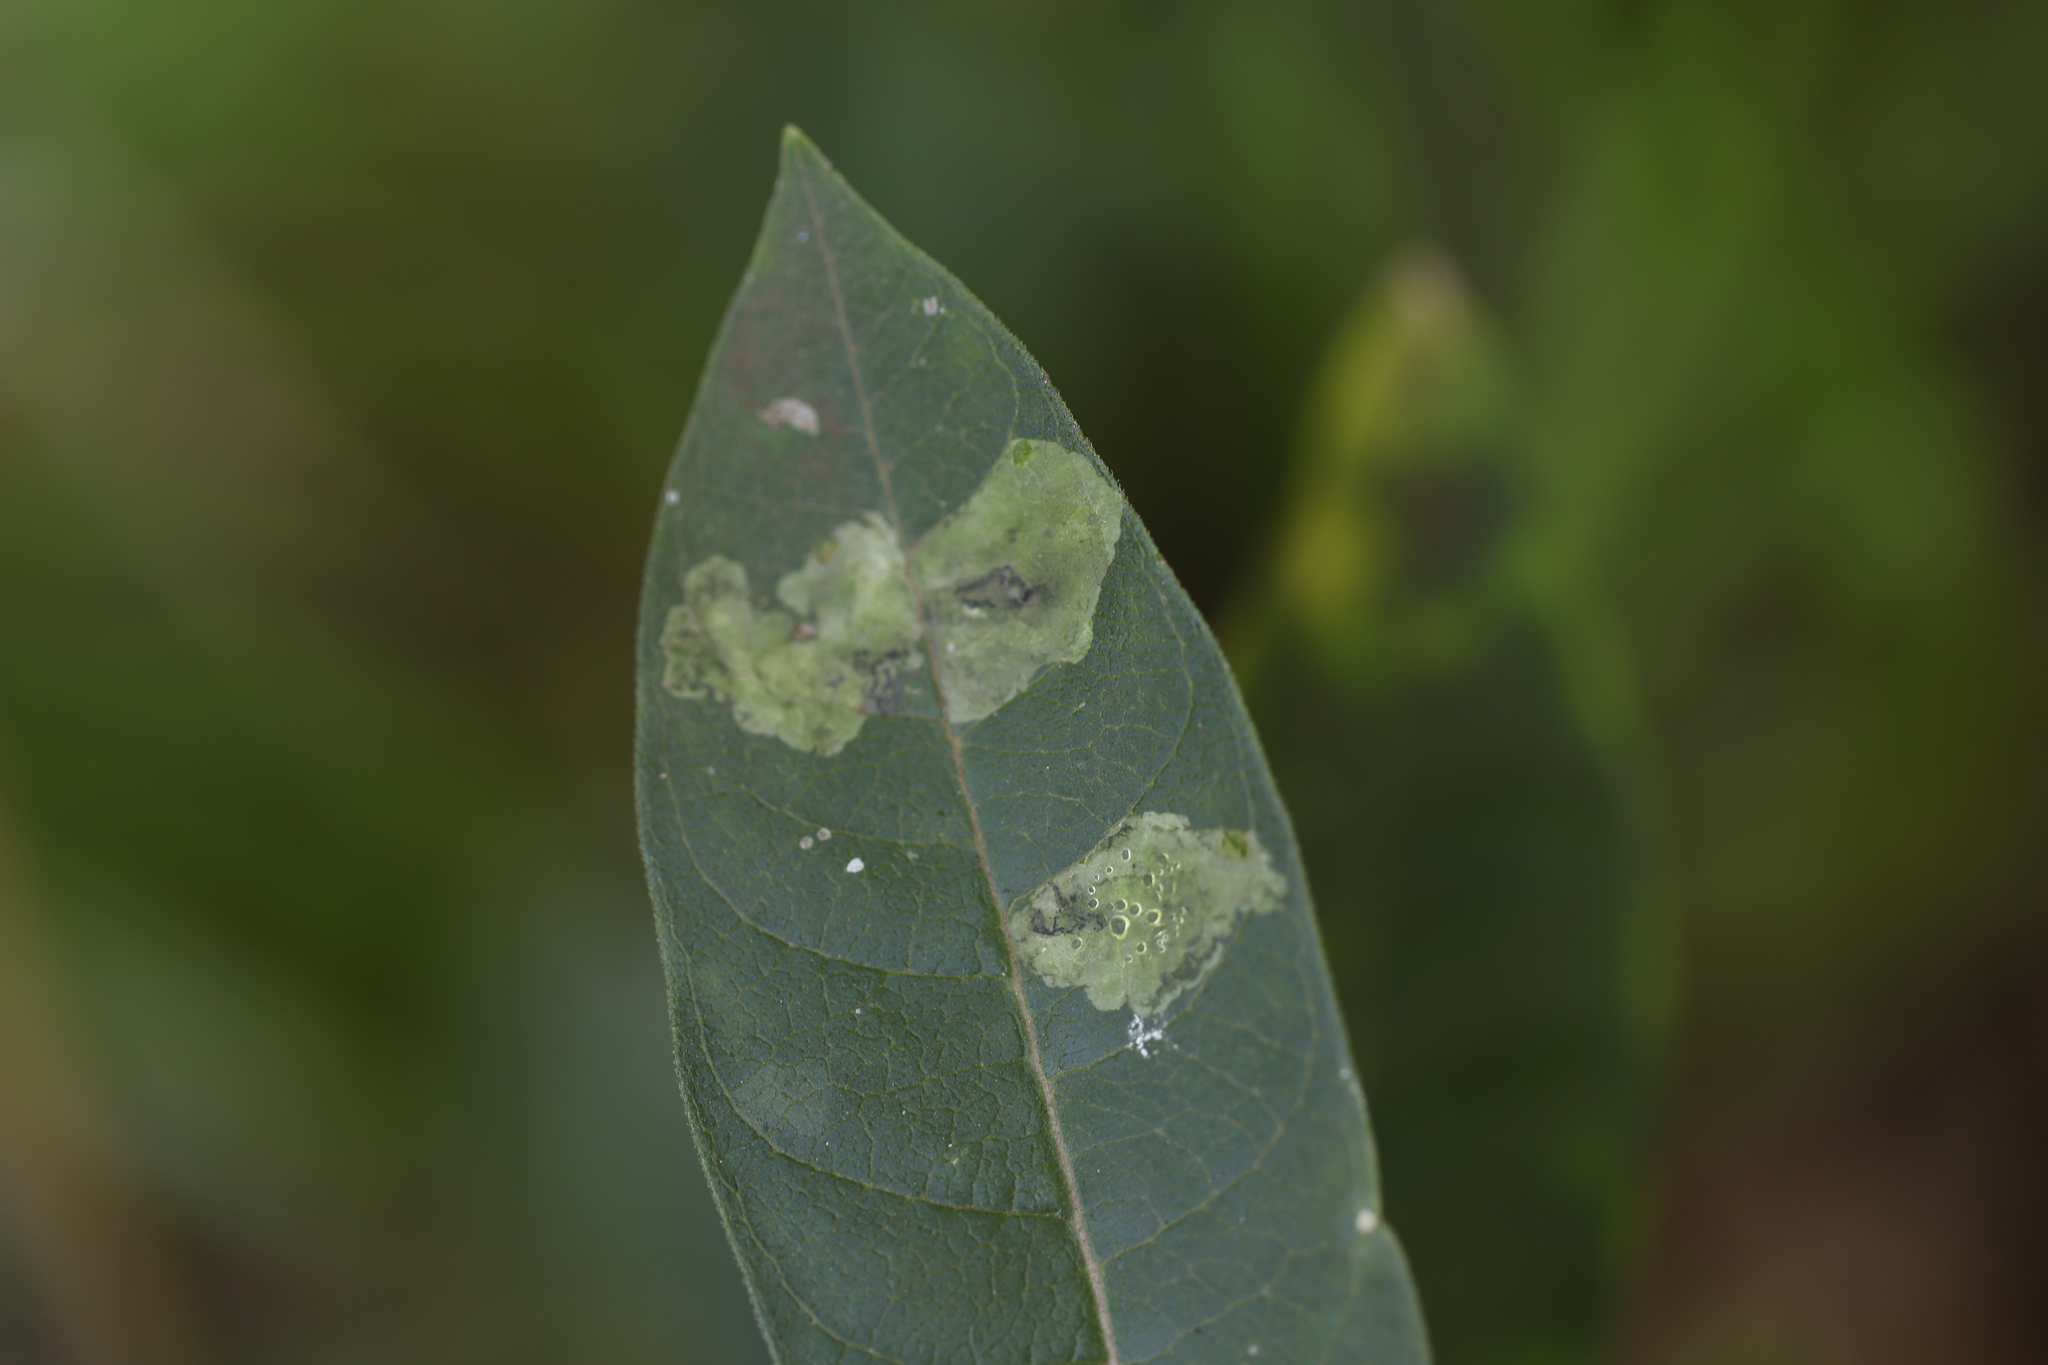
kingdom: Animalia
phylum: Arthropoda
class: Insecta
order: Diptera
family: Agromyzidae
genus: Liriomyza
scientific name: Liriomyza asclepiadis
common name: Milkweed leaf-miner fly
